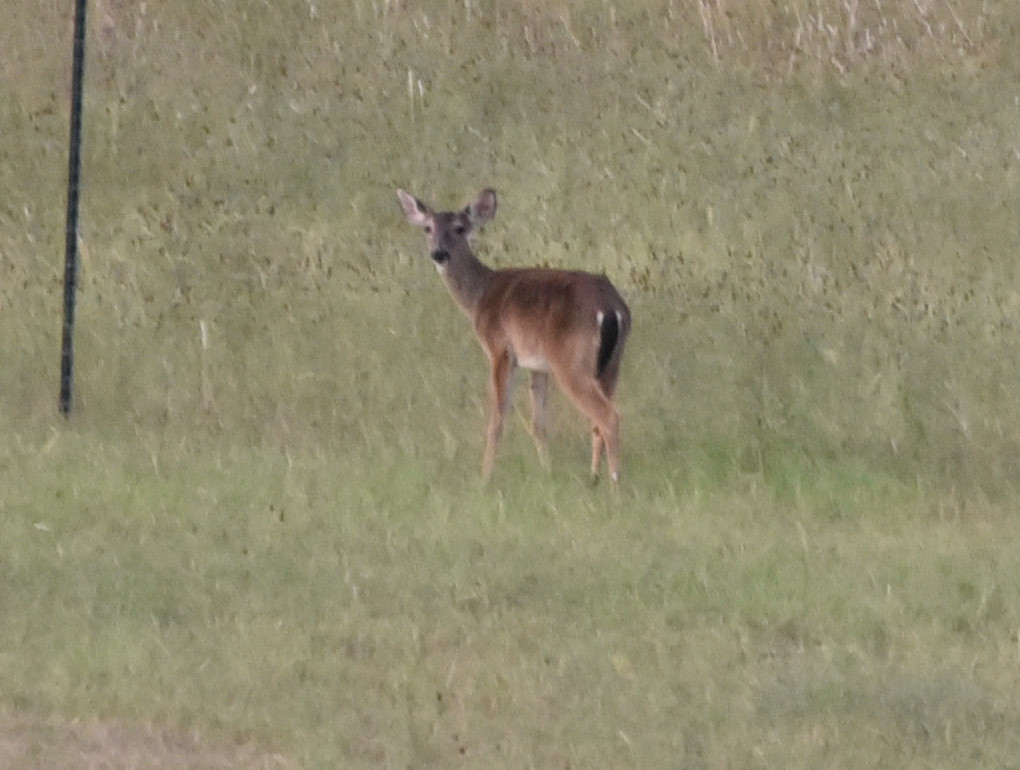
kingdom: Animalia
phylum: Chordata
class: Mammalia
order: Artiodactyla
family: Cervidae
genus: Odocoileus
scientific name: Odocoileus virginianus
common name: White-tailed deer
